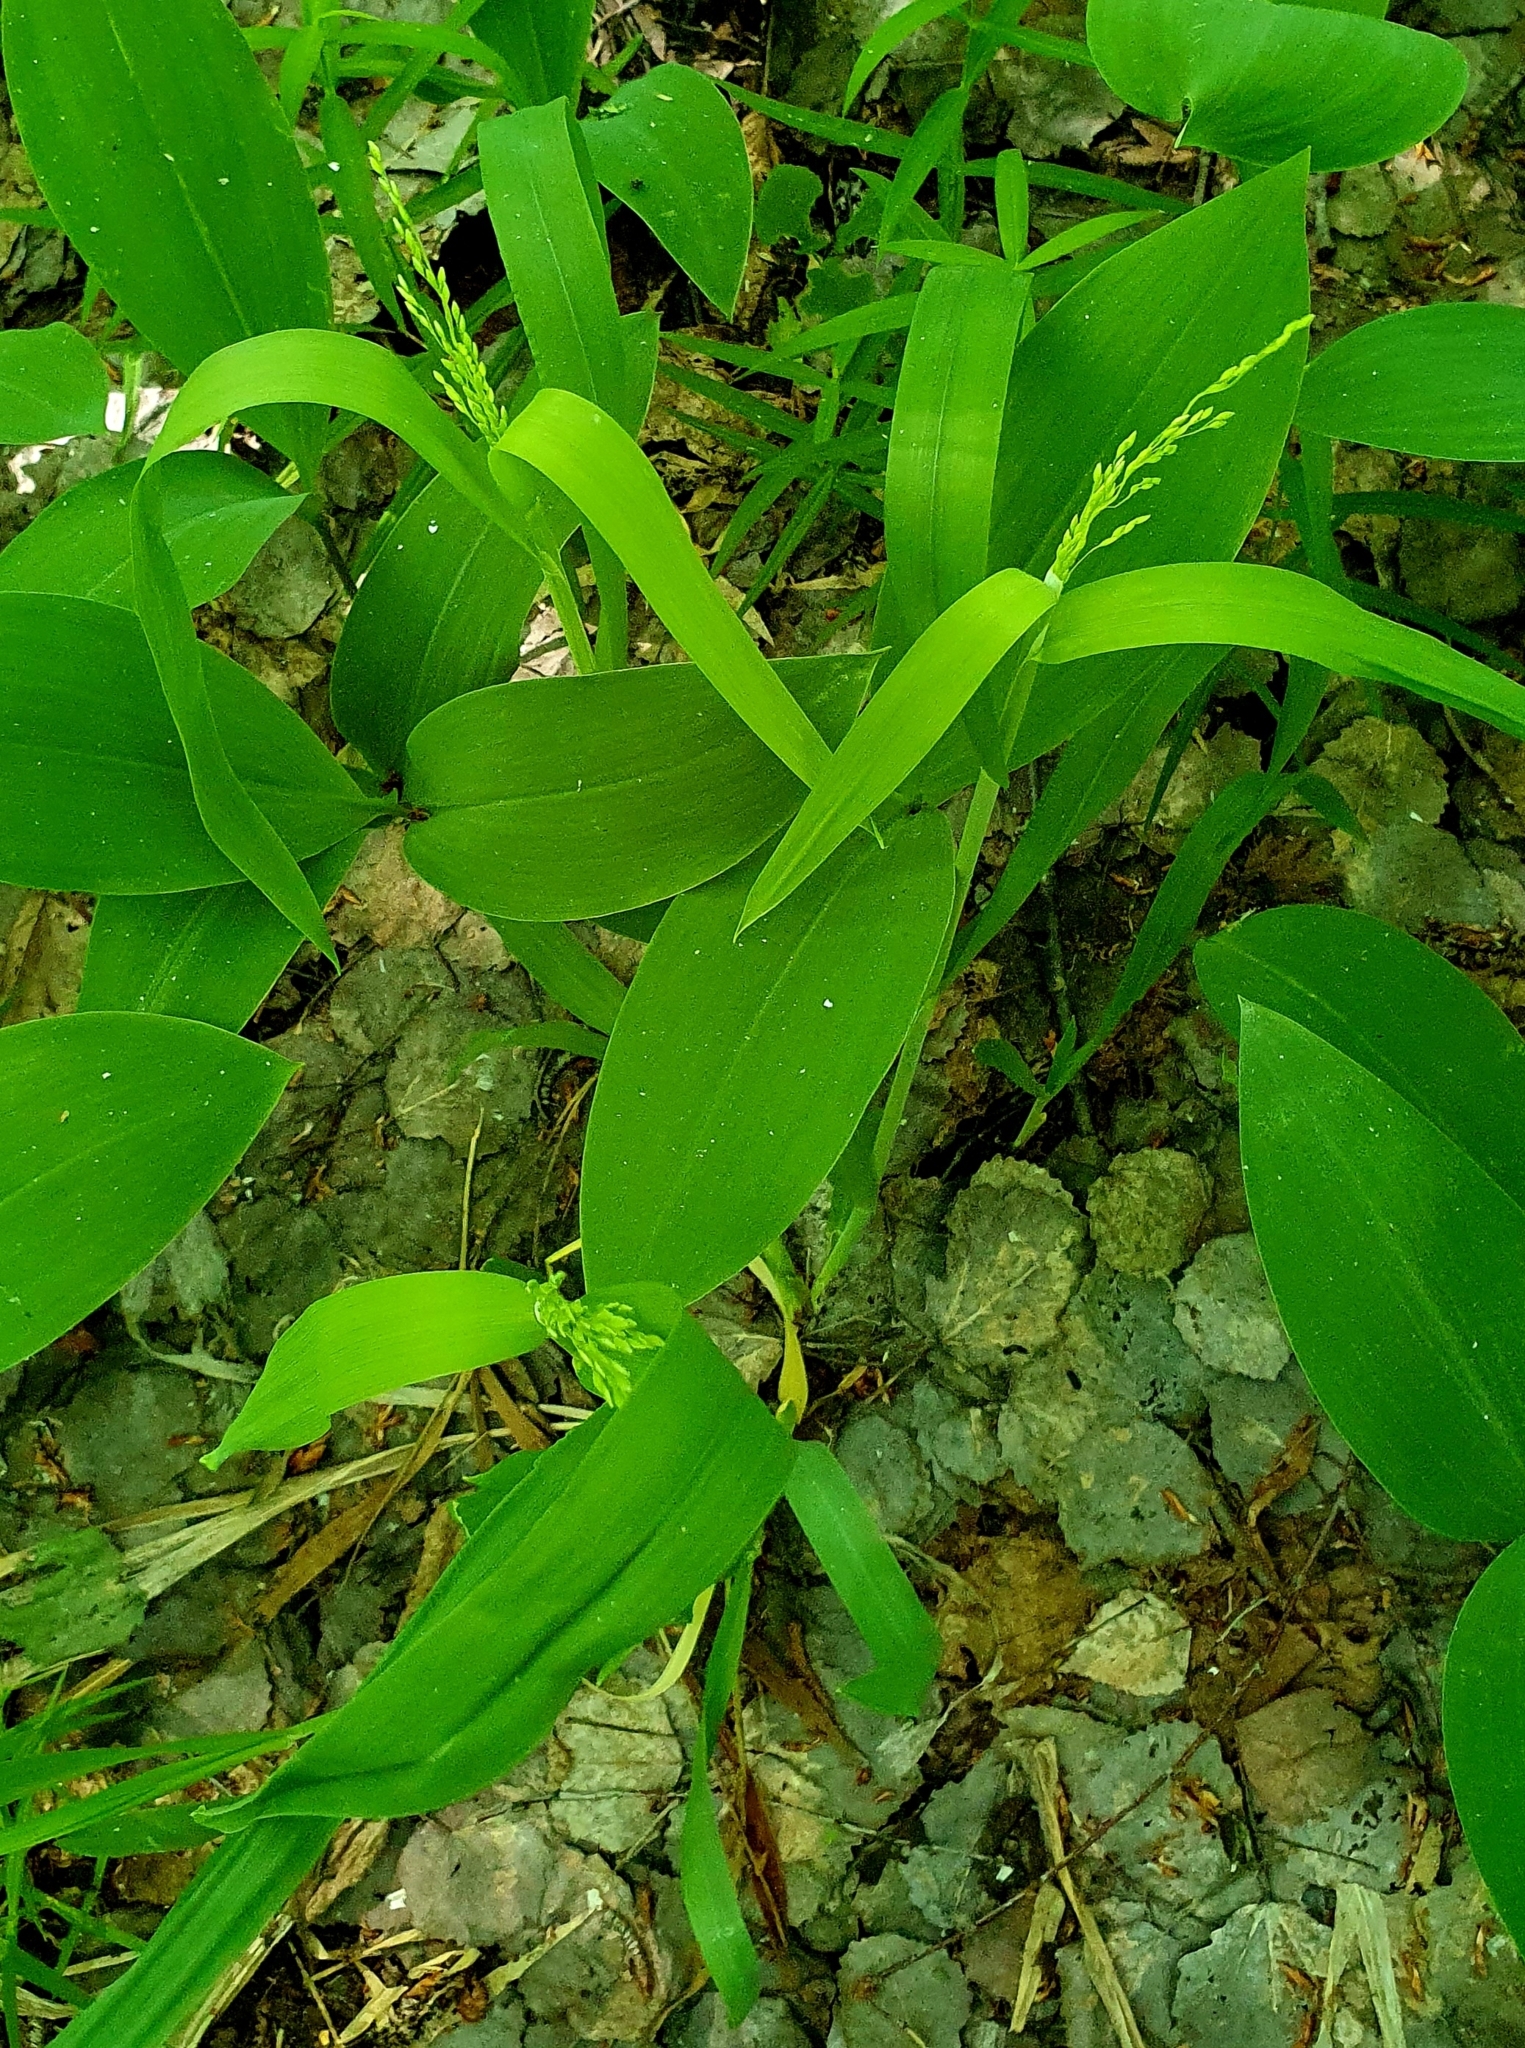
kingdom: Plantae
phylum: Tracheophyta
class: Liliopsida
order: Poales
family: Poaceae
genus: Milium
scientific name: Milium effusum
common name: Wood millet
